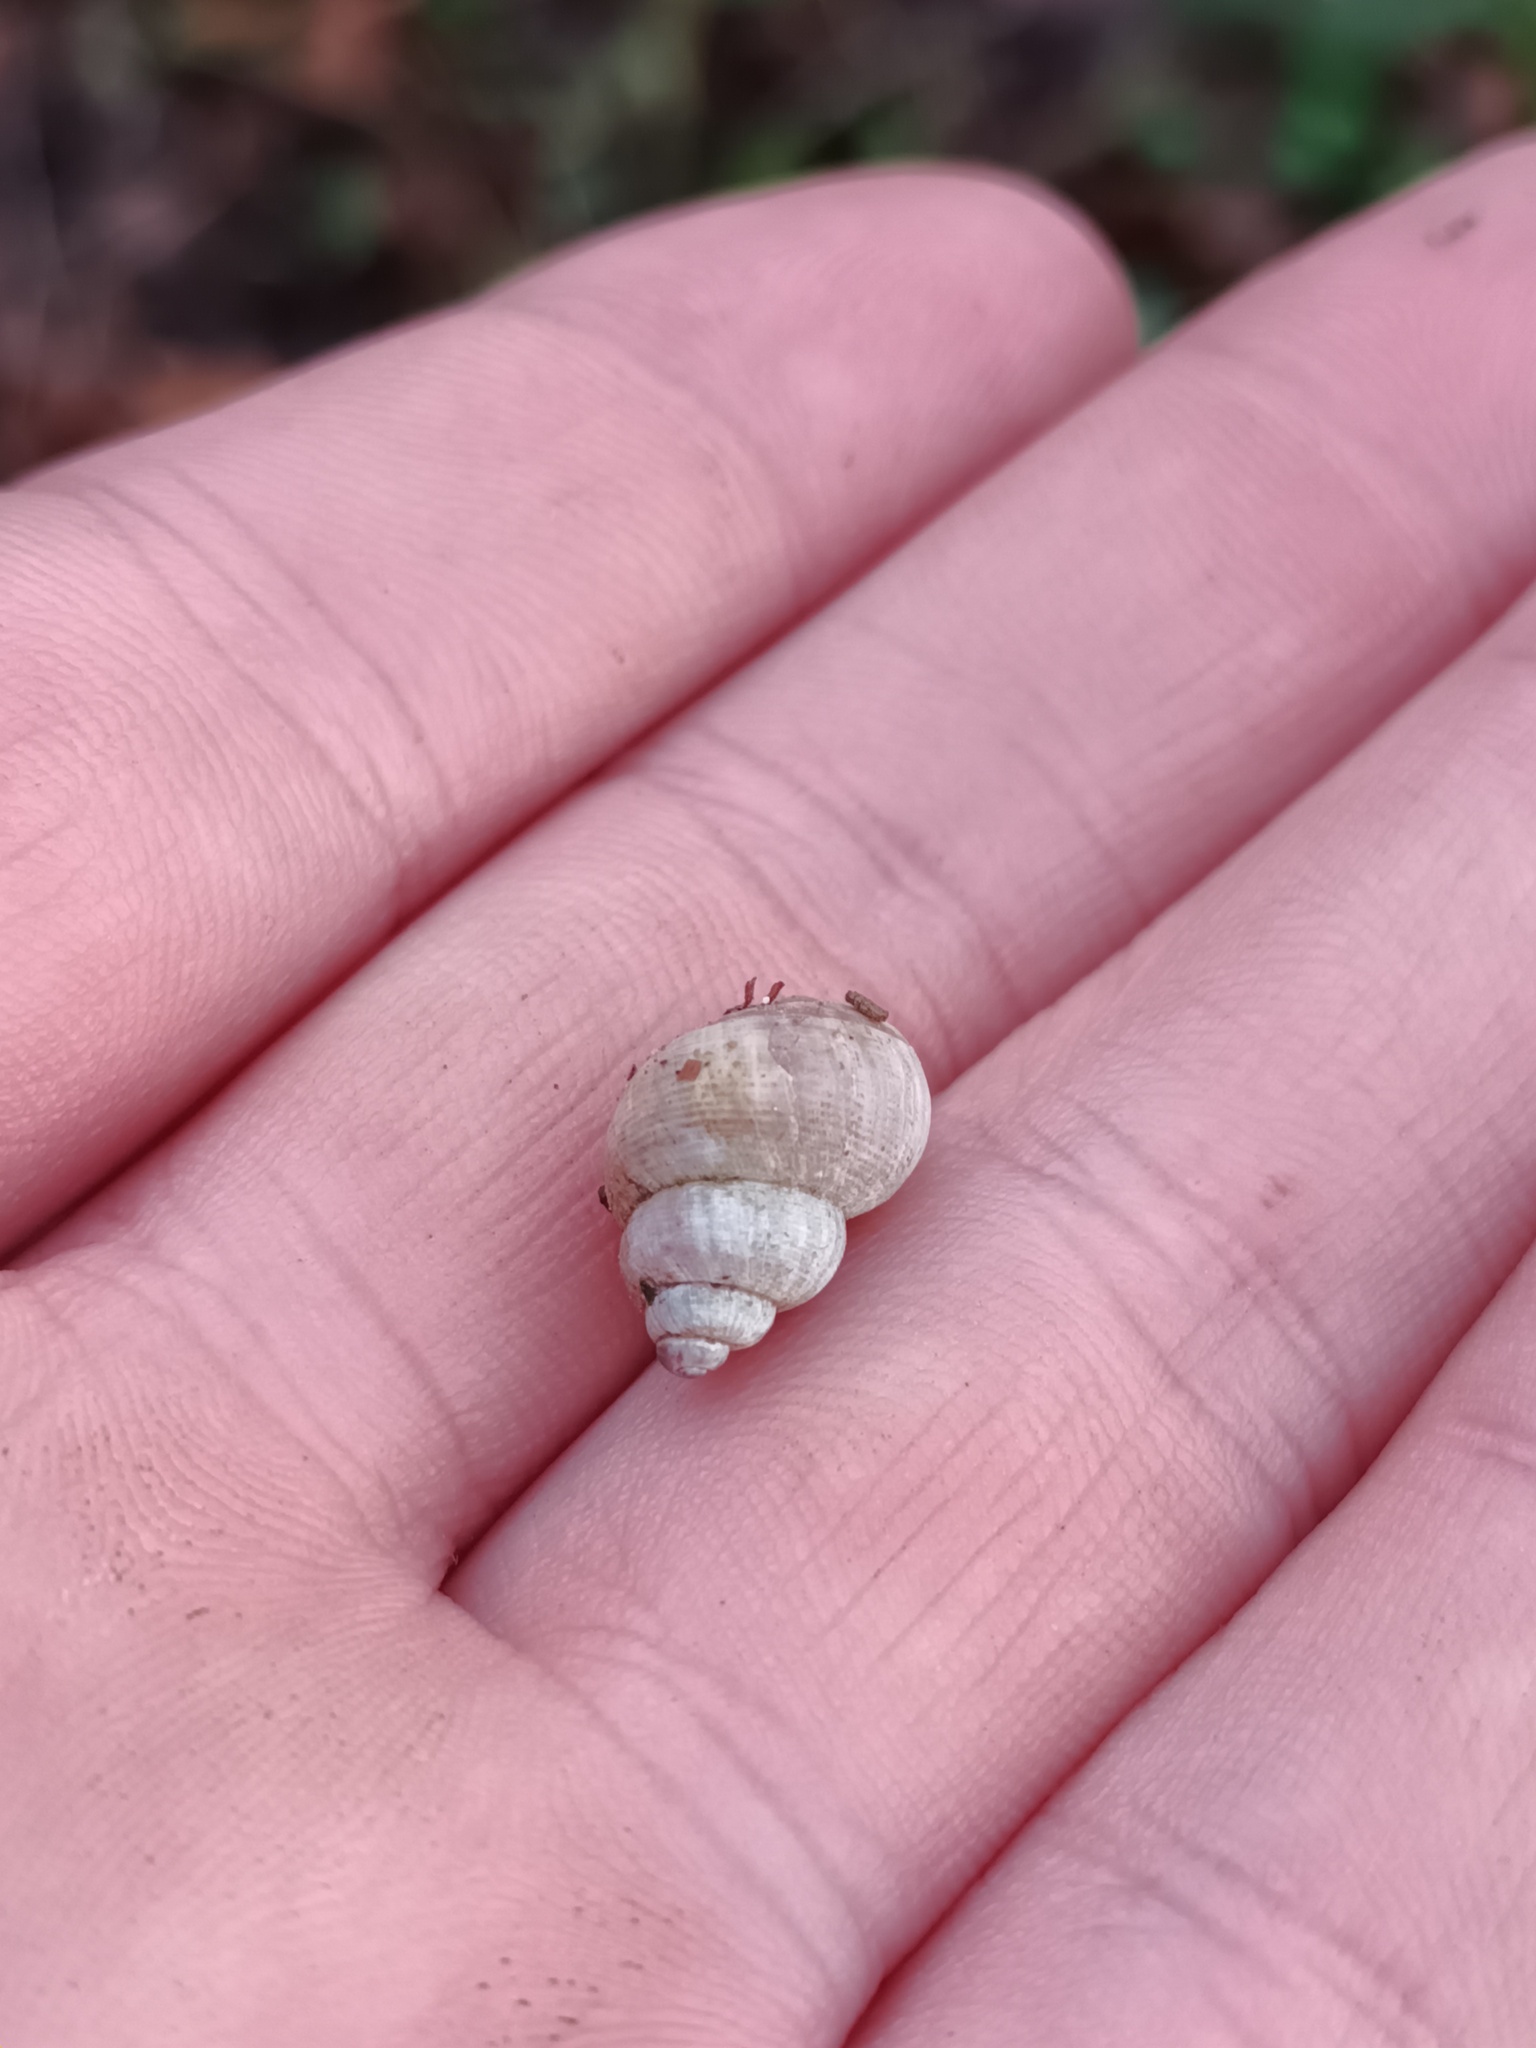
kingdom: Animalia
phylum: Mollusca
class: Gastropoda
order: Littorinimorpha
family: Pomatiidae
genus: Pomatias
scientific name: Pomatias elegans
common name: Red-mouthed snail
